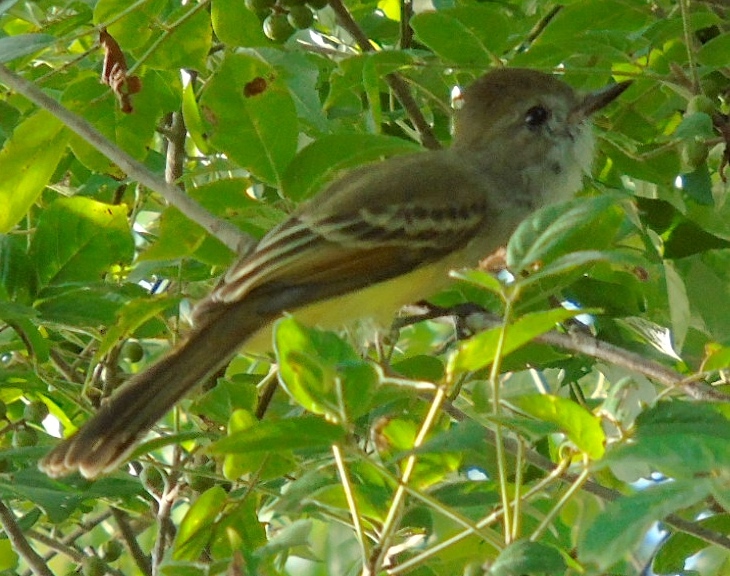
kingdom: Animalia
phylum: Chordata
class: Aves
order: Passeriformes
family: Tyrannidae
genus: Myiarchus
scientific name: Myiarchus
